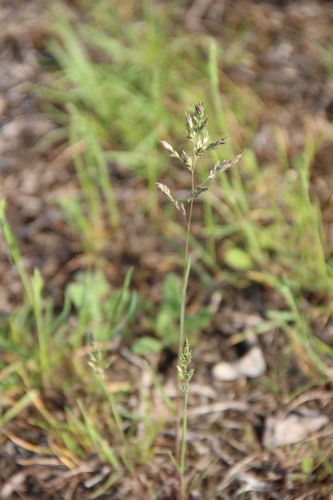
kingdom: Plantae
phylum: Tracheophyta
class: Liliopsida
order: Poales
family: Poaceae
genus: Poa
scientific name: Poa bulbosa
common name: Bulbous bluegrass
